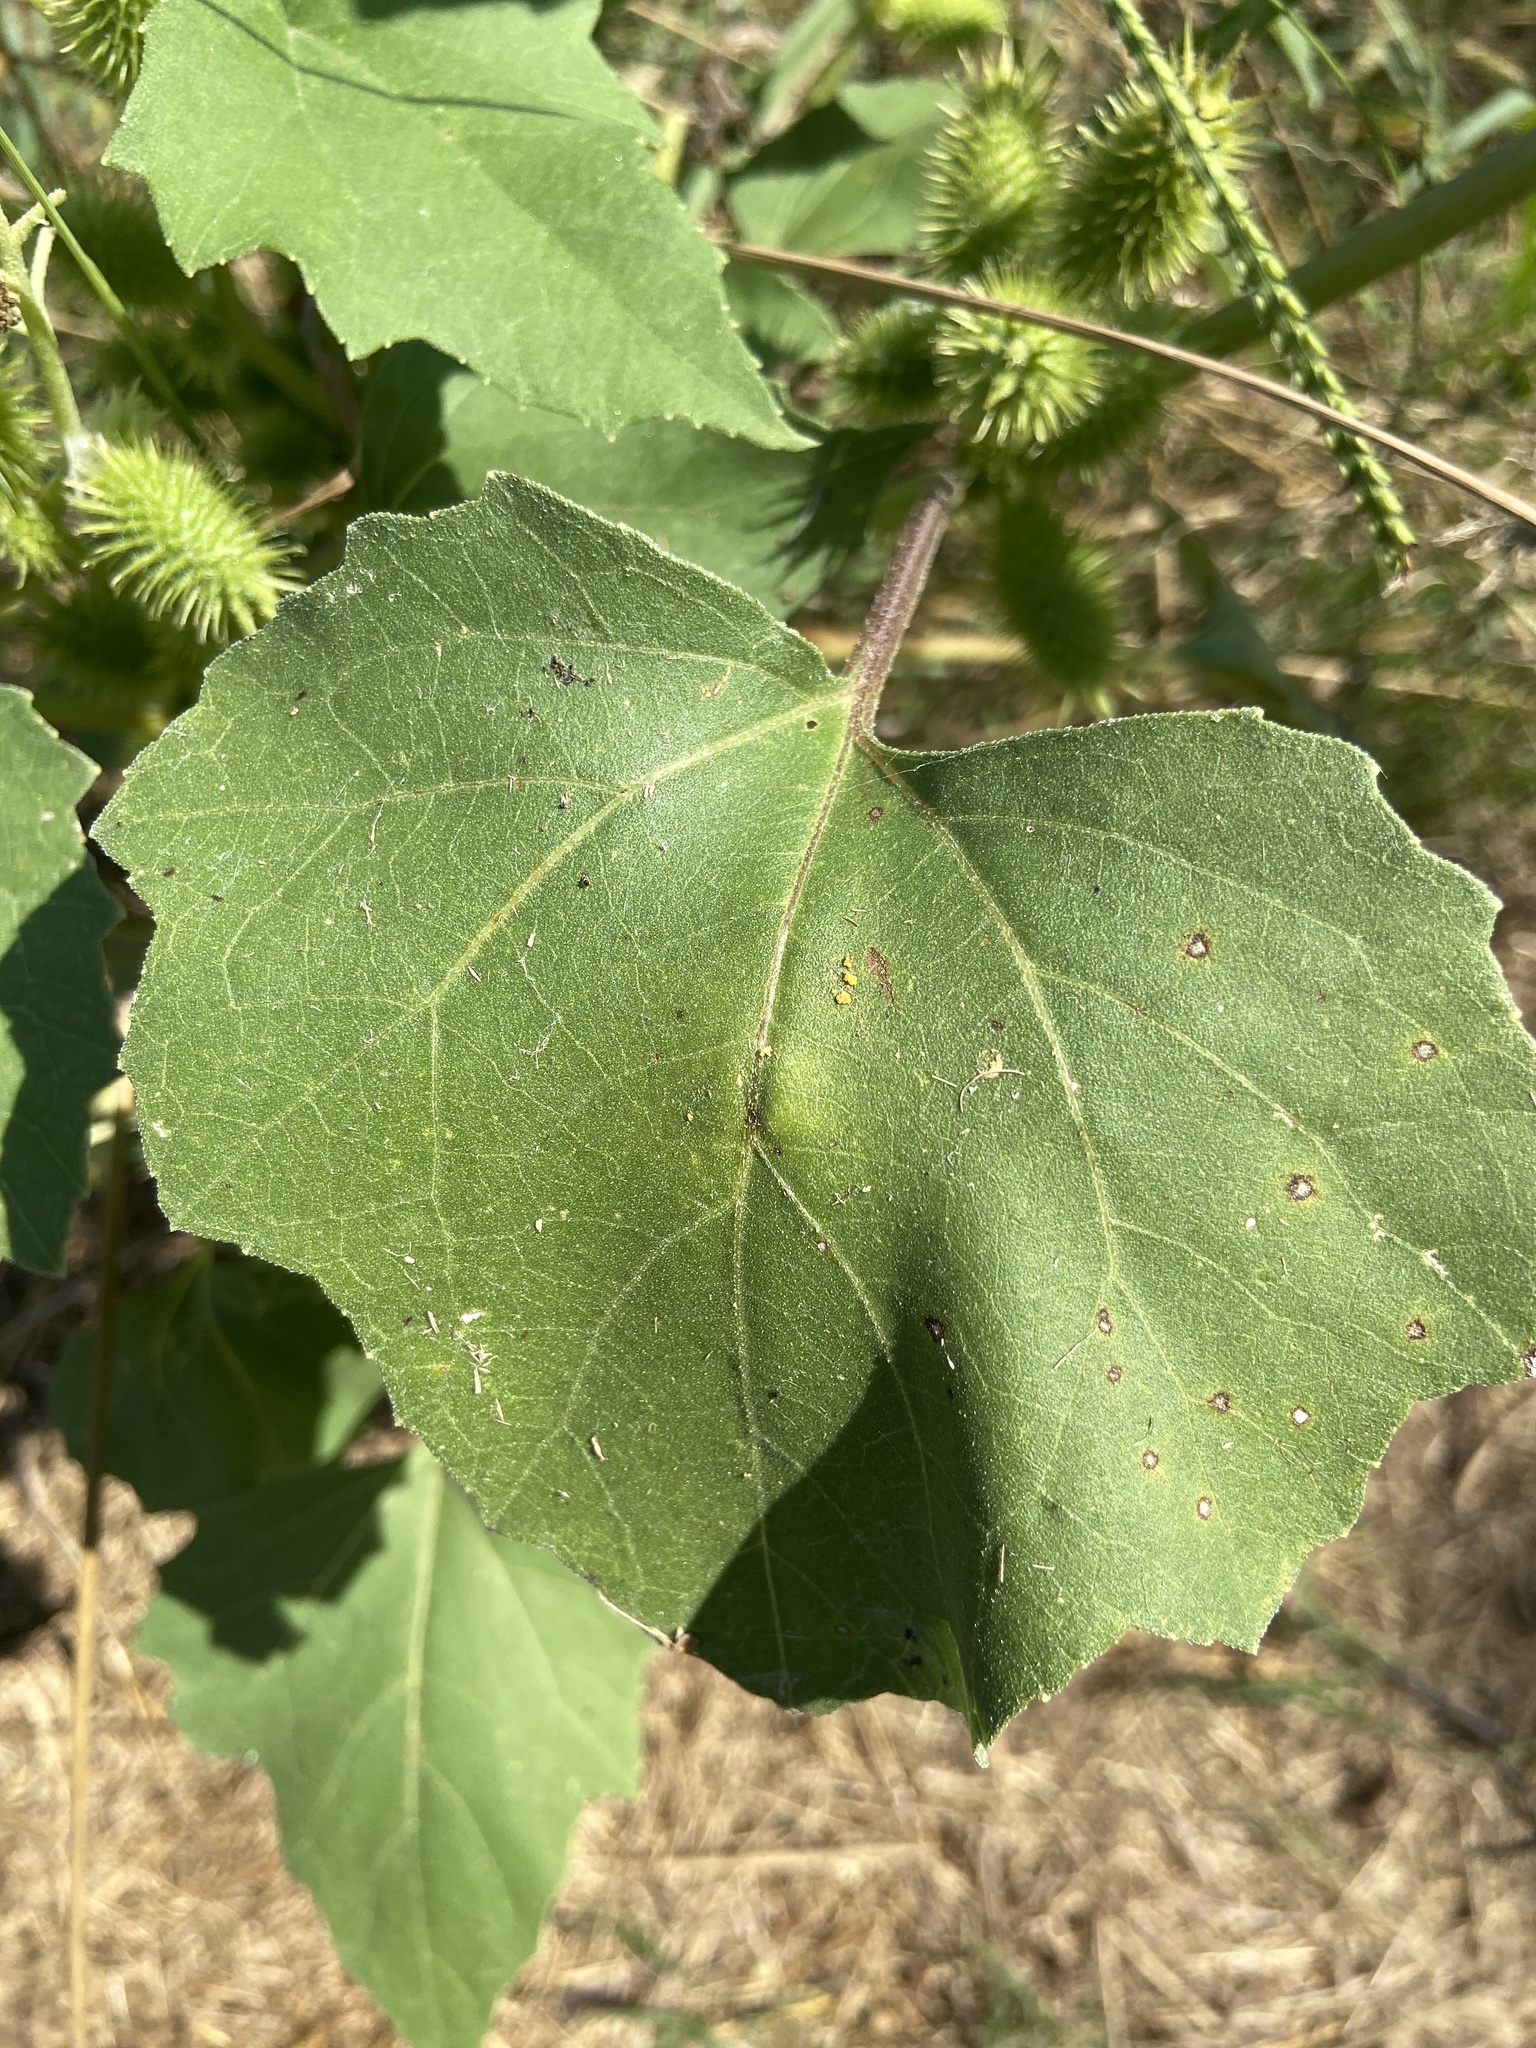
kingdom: Plantae
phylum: Tracheophyta
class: Magnoliopsida
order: Asterales
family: Asteraceae
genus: Xanthium
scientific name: Xanthium strumarium
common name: Rough cocklebur
